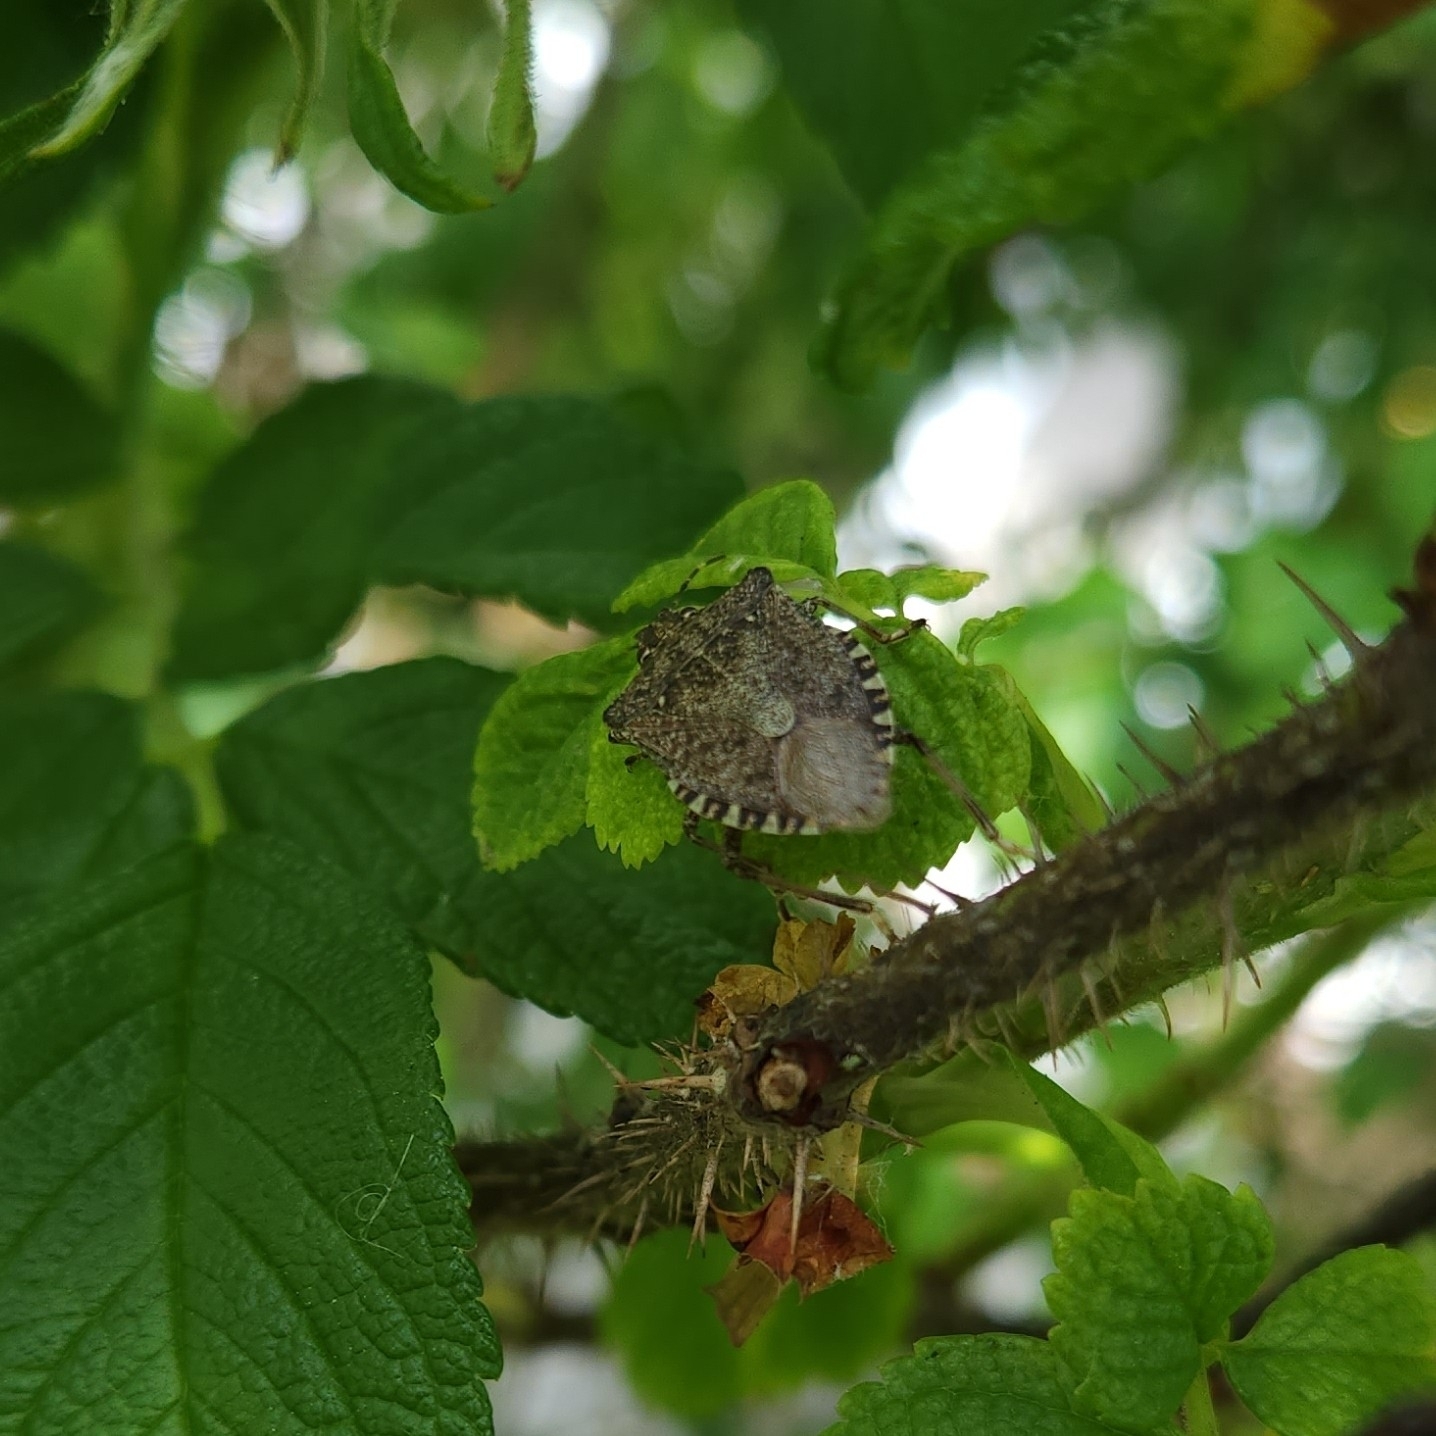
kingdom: Animalia
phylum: Arthropoda
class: Insecta
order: Hemiptera
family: Pentatomidae
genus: Halyomorpha
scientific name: Halyomorpha halys
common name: Brown marmorated stink bug
